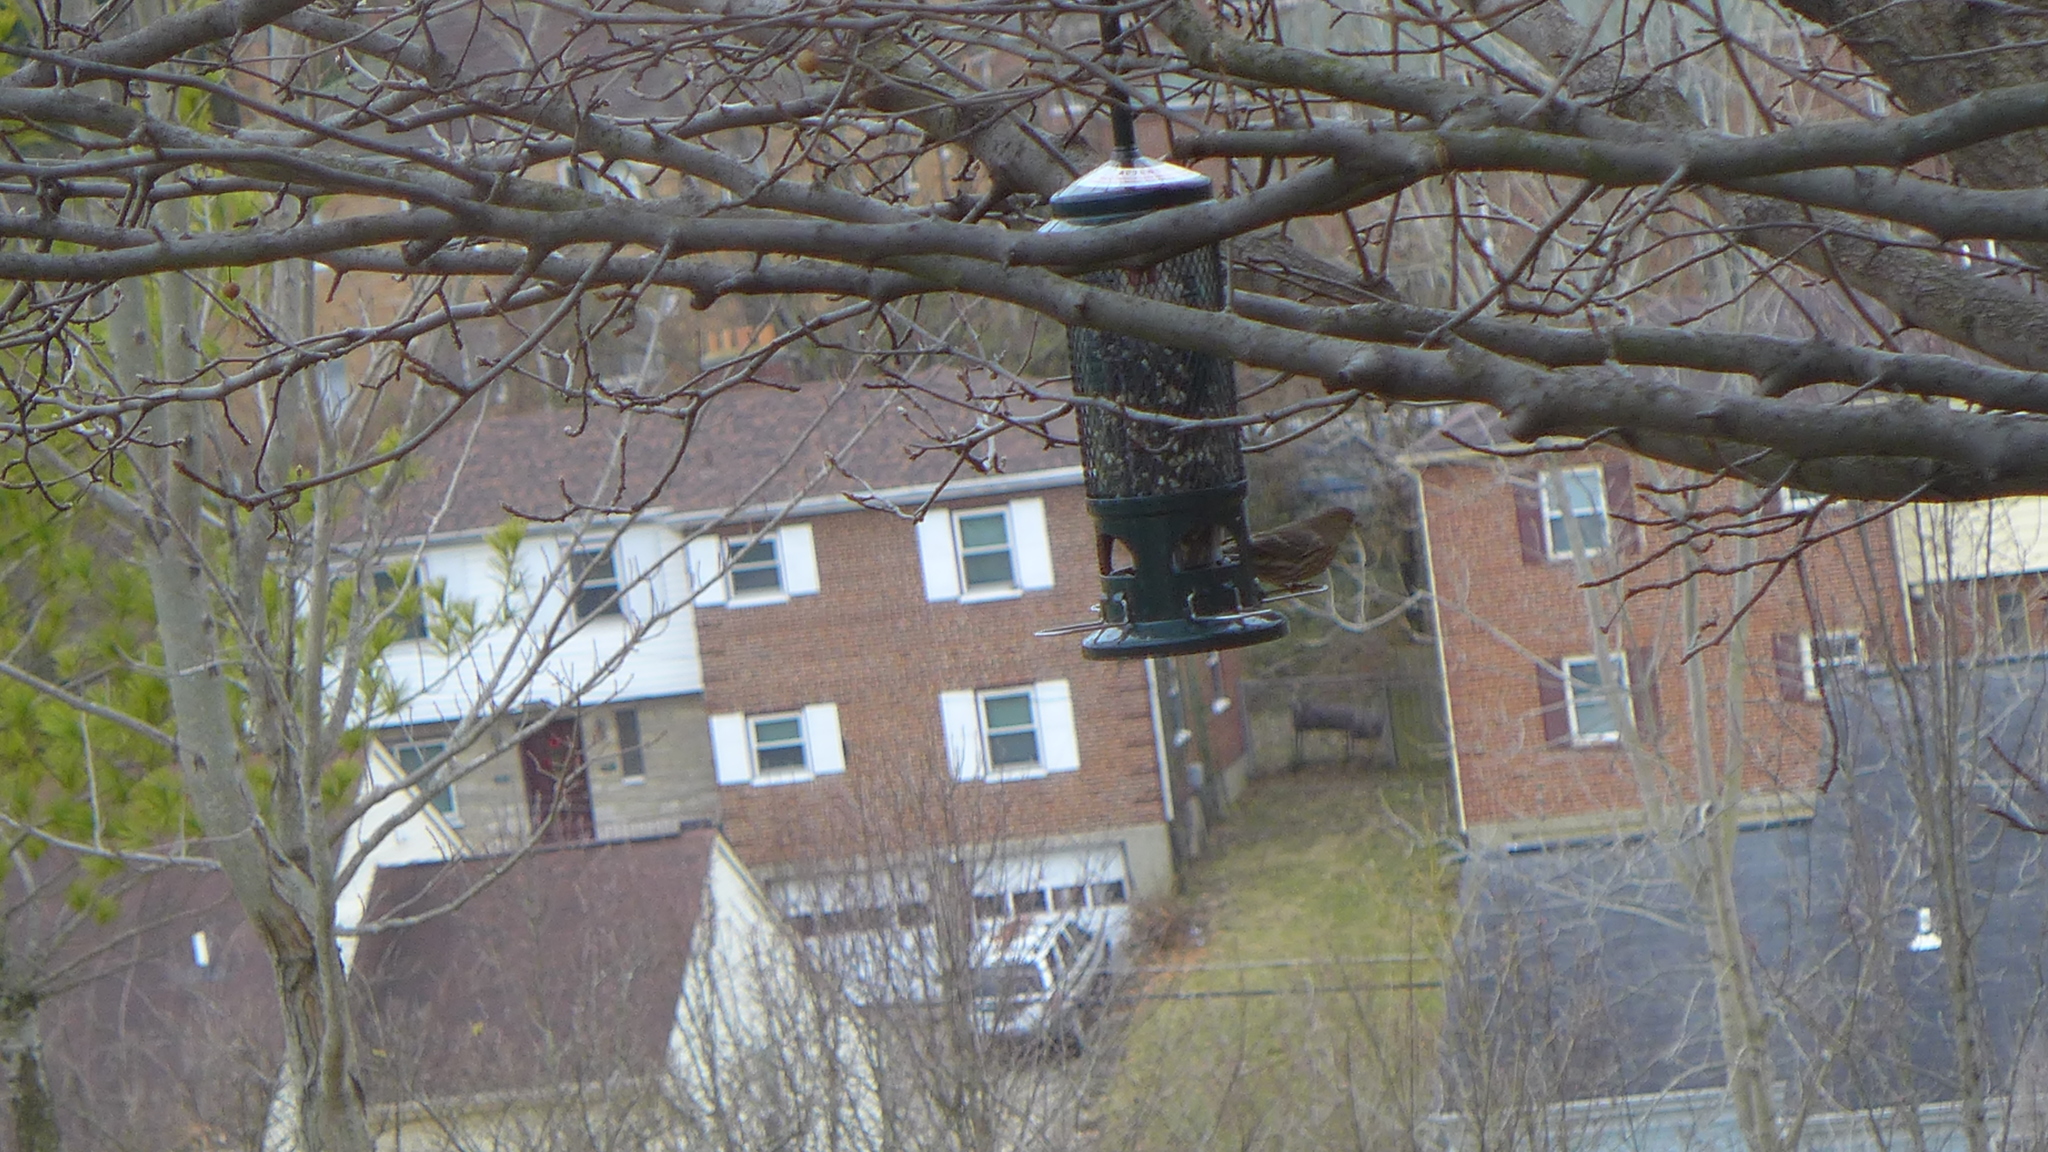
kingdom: Animalia
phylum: Chordata
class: Aves
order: Passeriformes
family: Fringillidae
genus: Haemorhous
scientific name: Haemorhous mexicanus
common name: House finch
